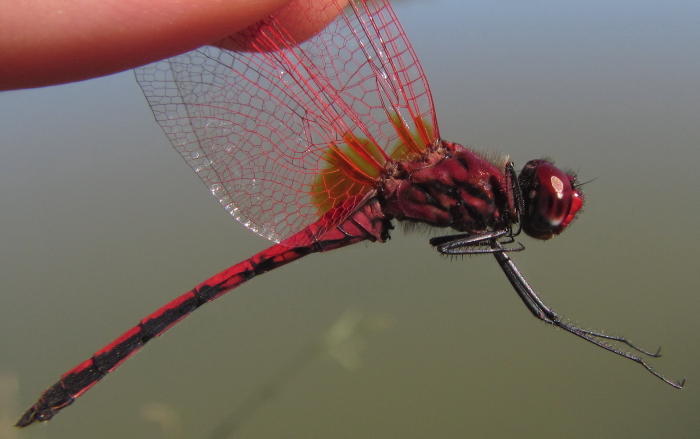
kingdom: Animalia
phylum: Arthropoda
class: Insecta
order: Odonata
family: Libellulidae
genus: Trithemis
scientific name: Trithemis arteriosa
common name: Red-veined dropwing
